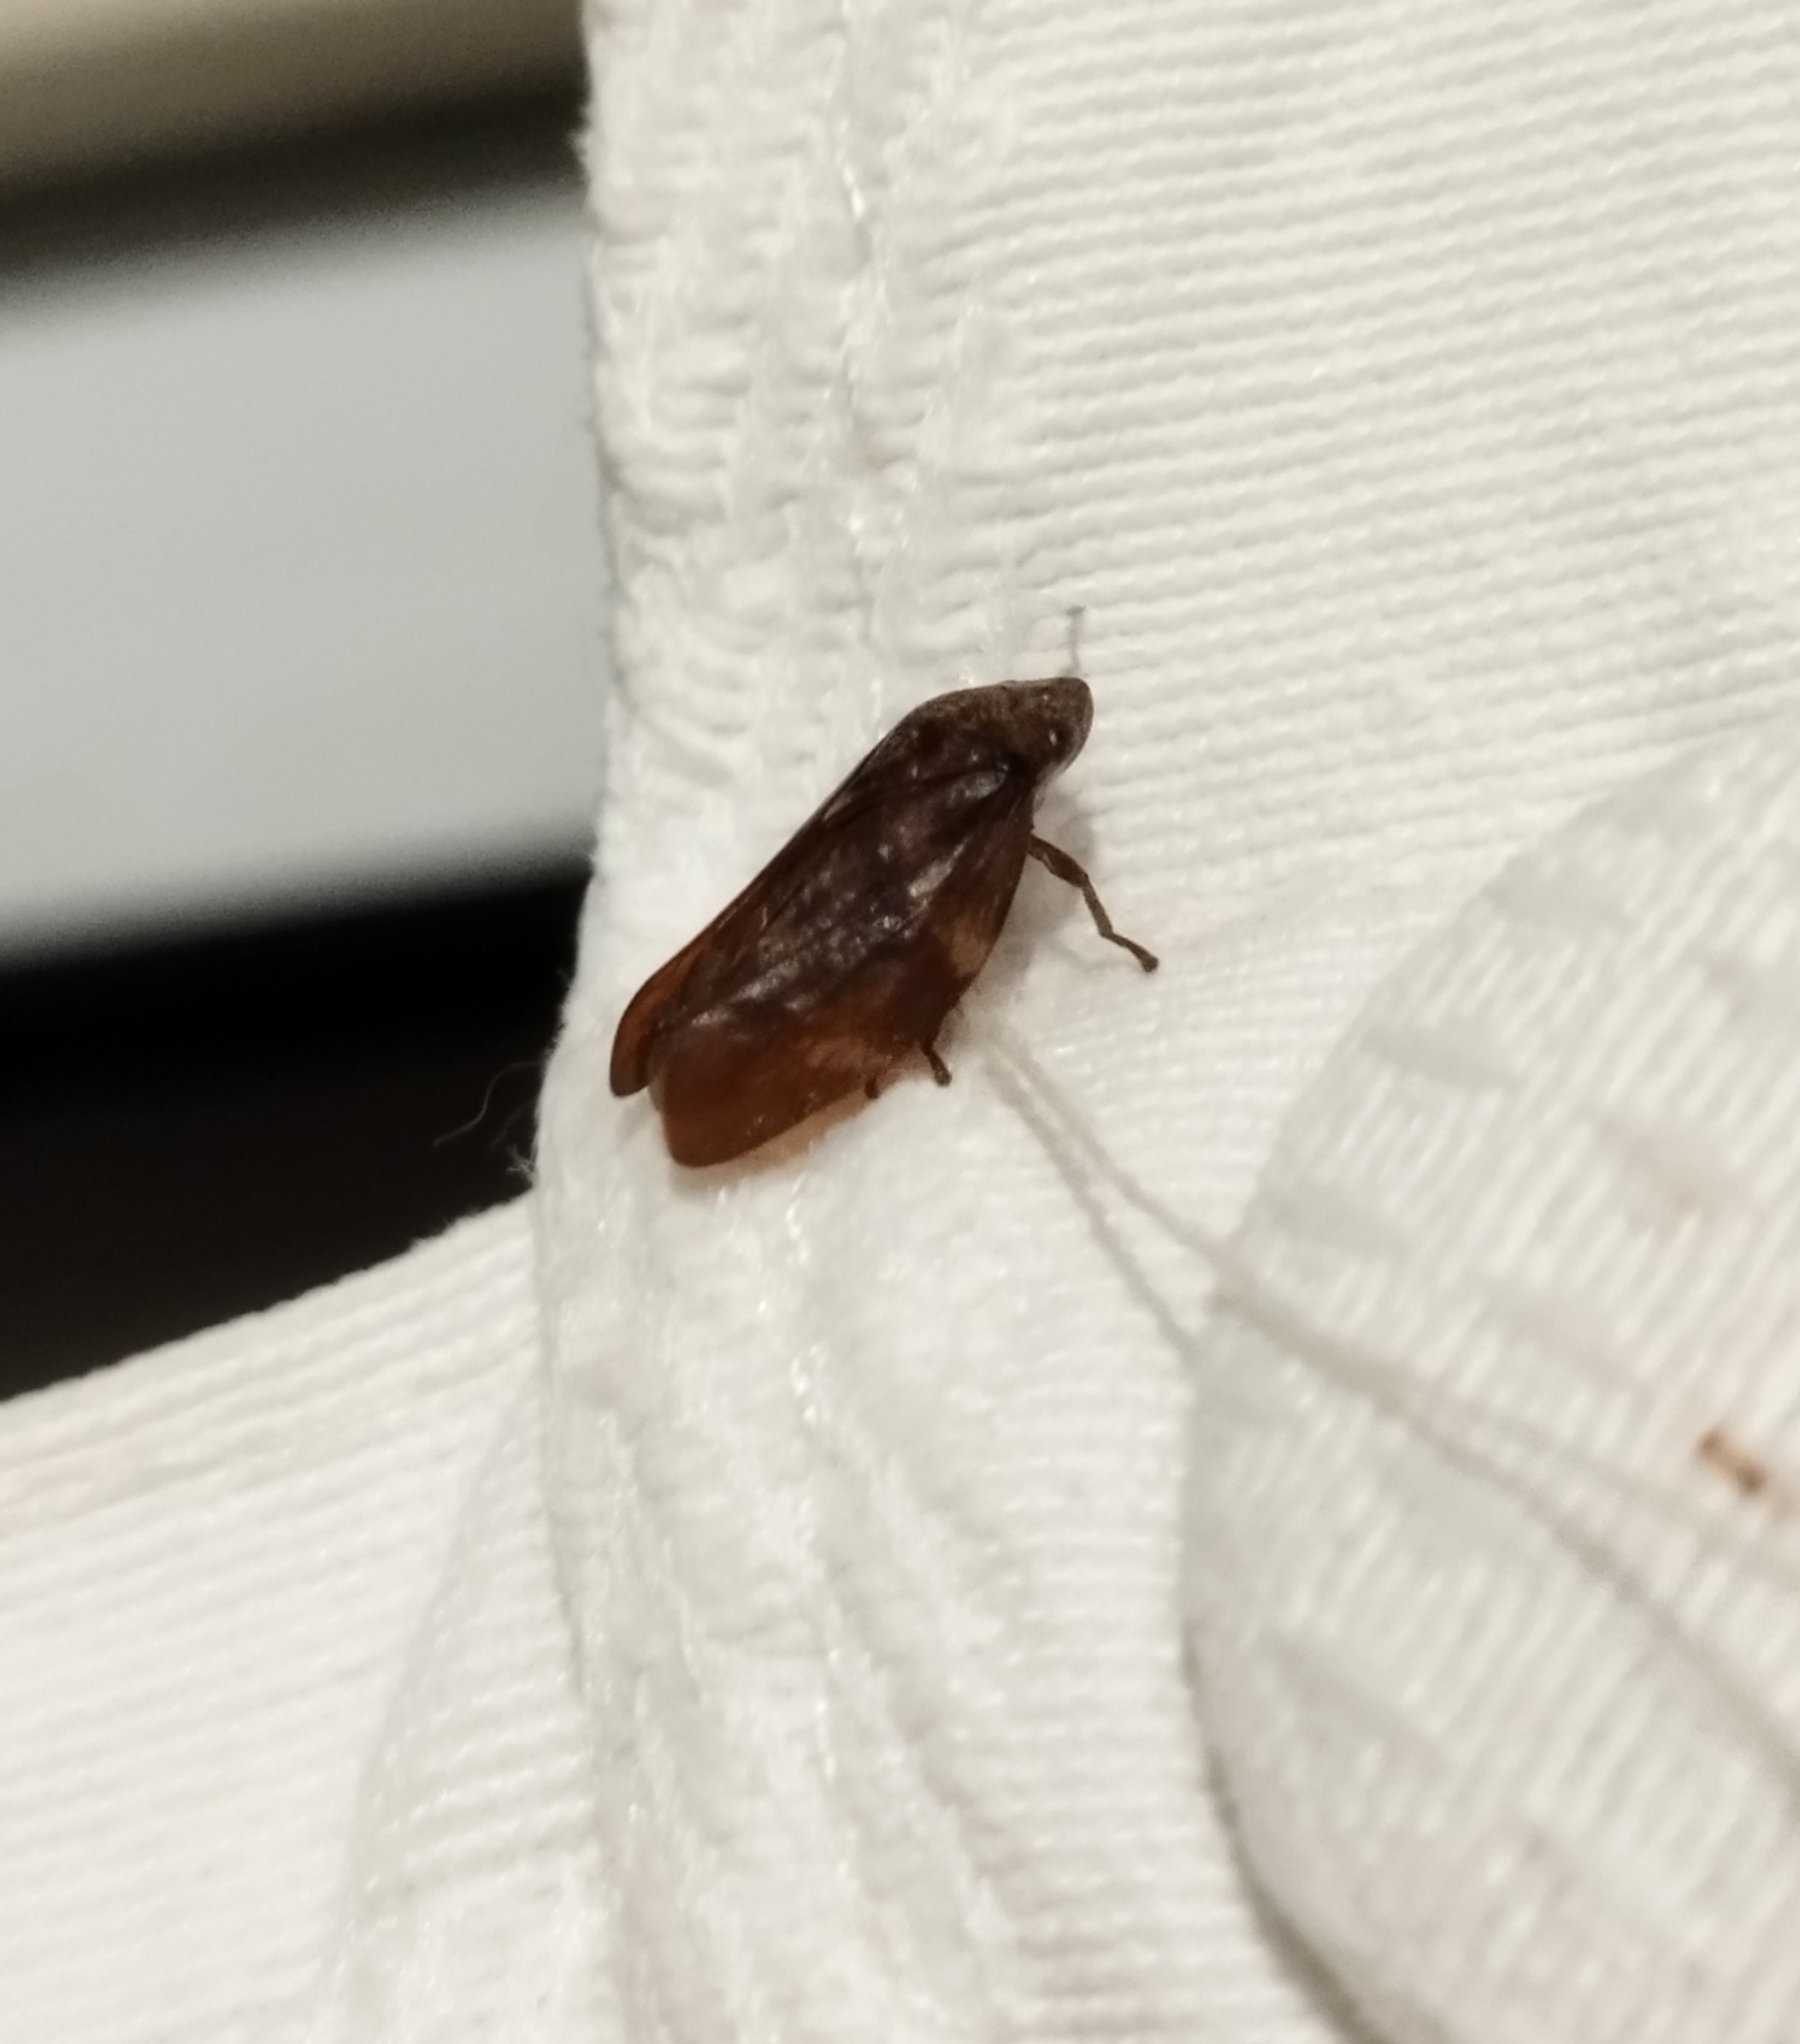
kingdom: Animalia
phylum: Arthropoda
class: Insecta
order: Hemiptera
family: Aphrophoridae
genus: Cephisus
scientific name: Cephisus siccifolius
